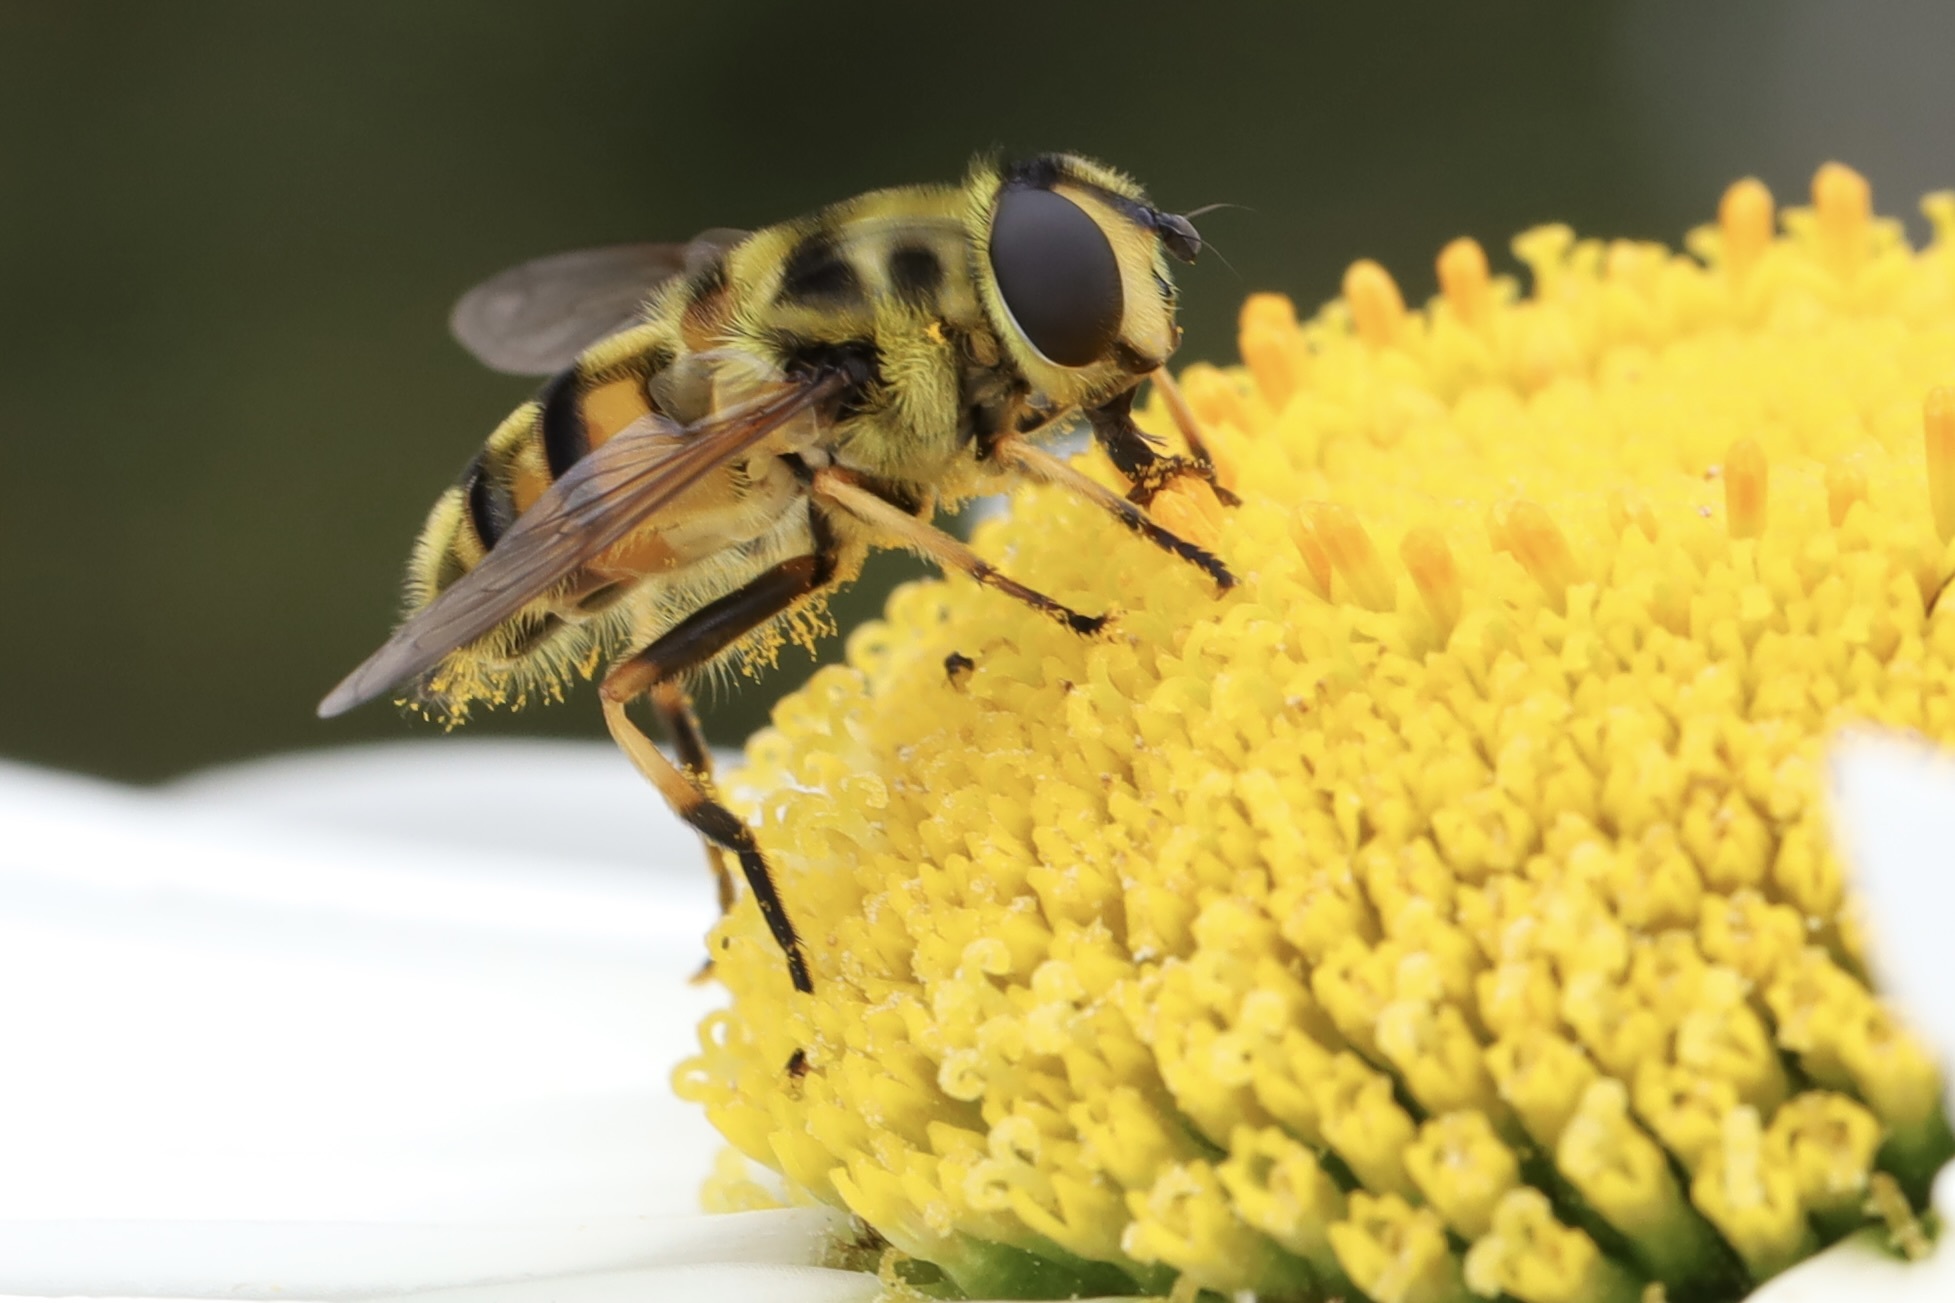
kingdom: Animalia
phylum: Arthropoda
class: Insecta
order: Diptera
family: Syrphidae
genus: Myathropa
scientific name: Myathropa florea
